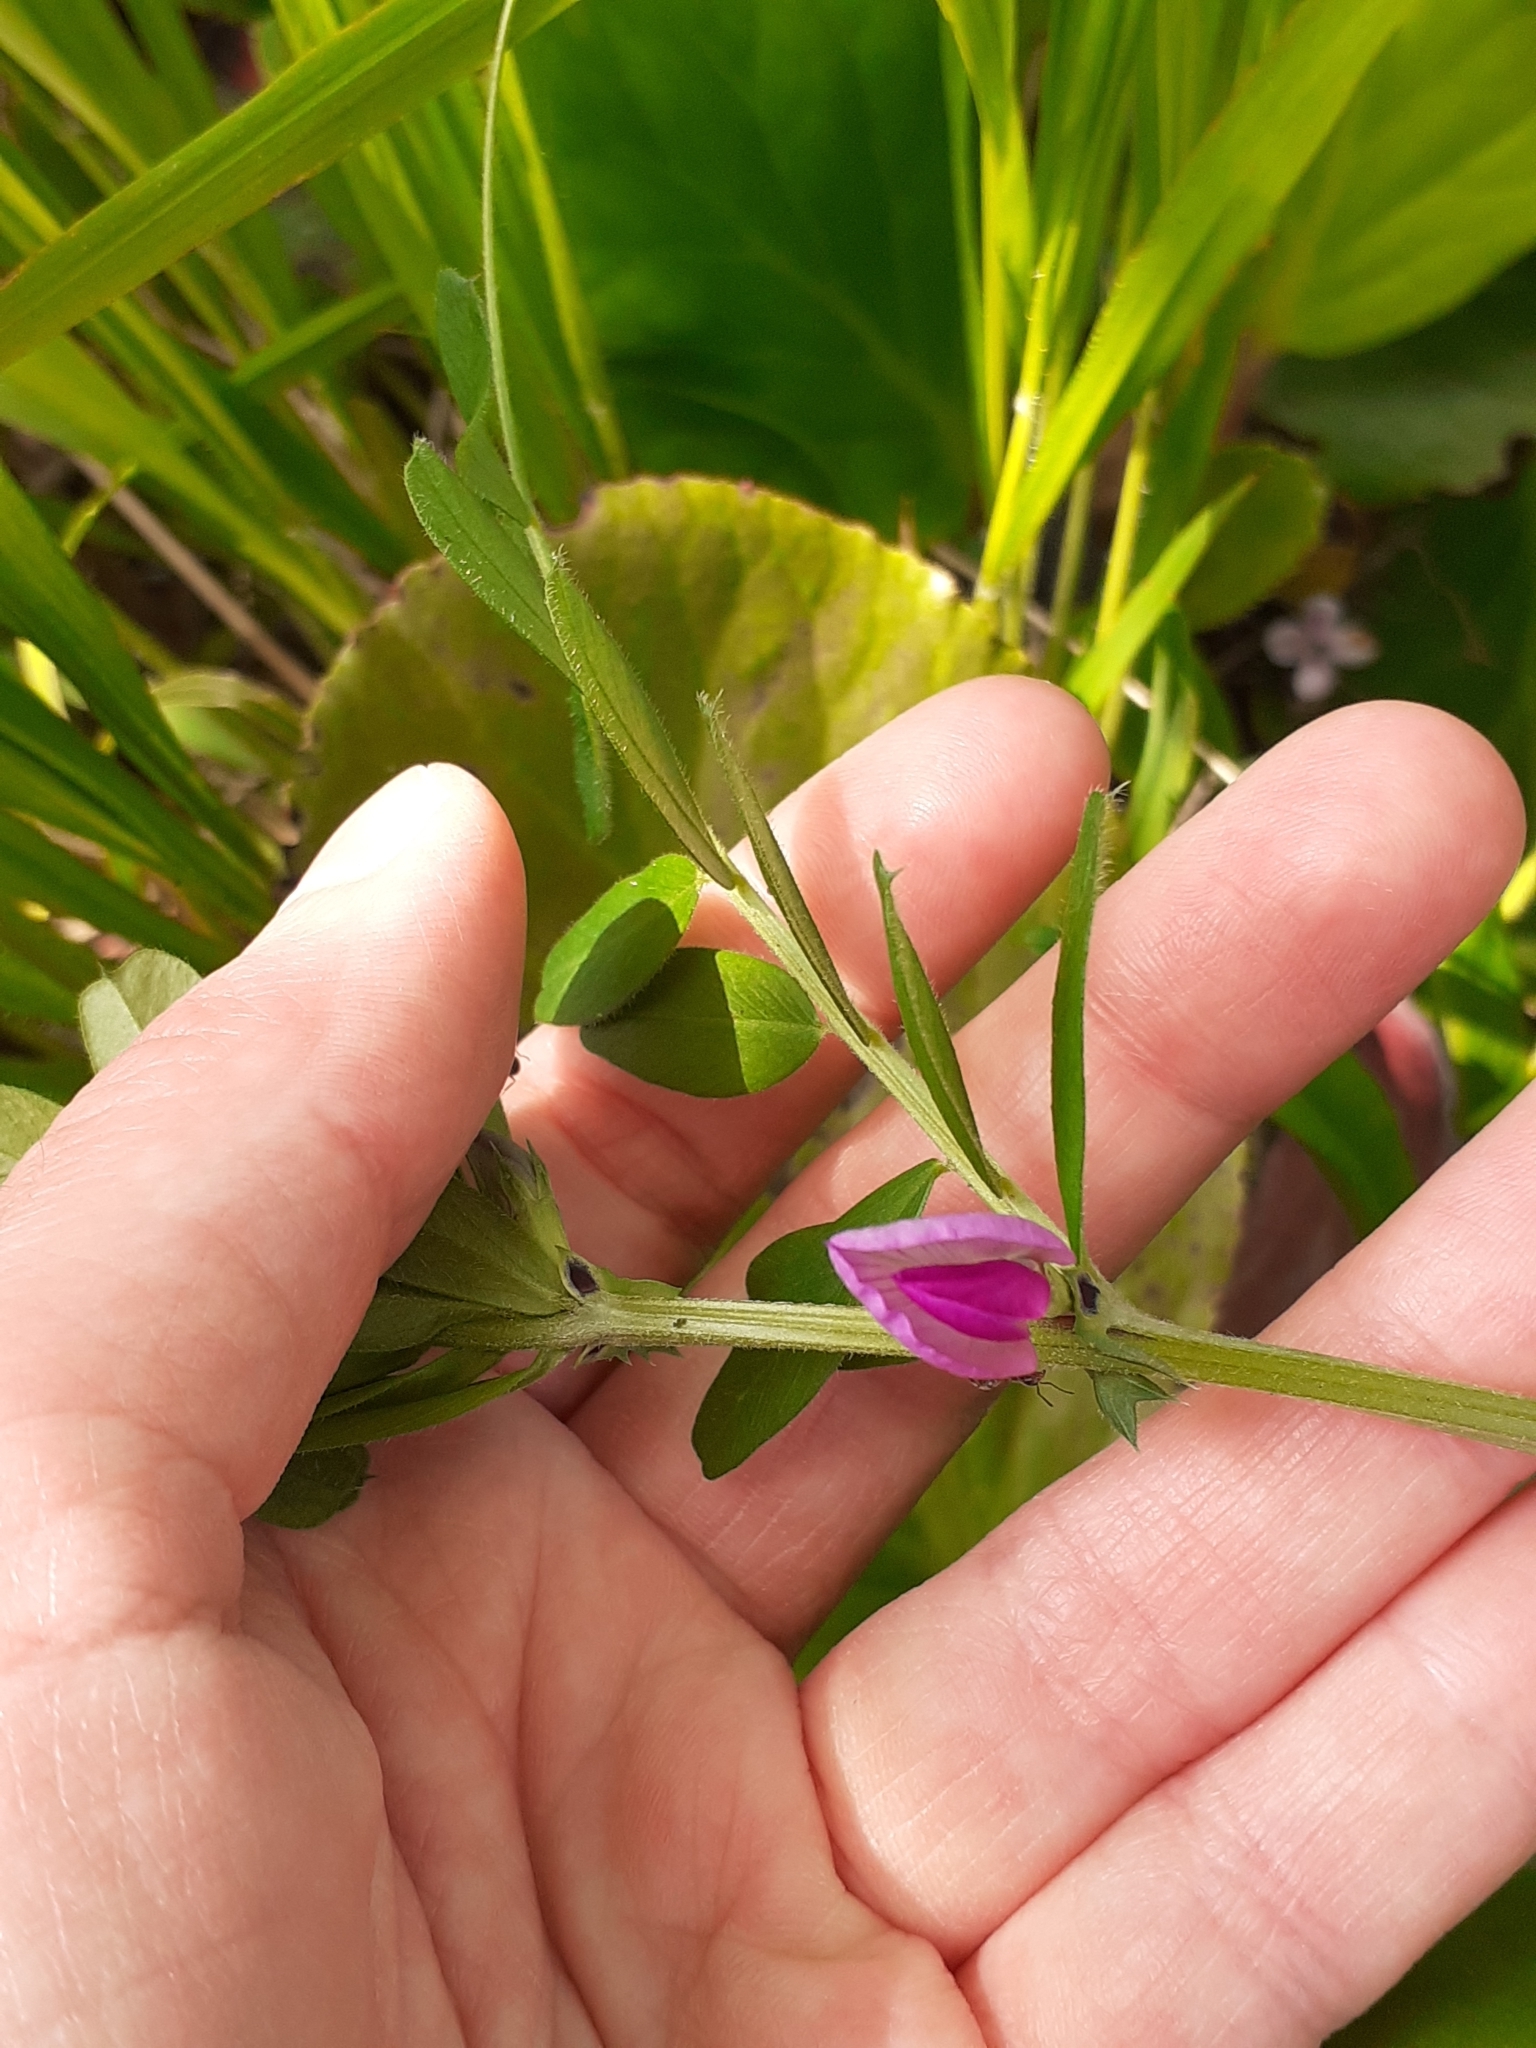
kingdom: Plantae
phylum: Tracheophyta
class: Magnoliopsida
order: Fabales
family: Fabaceae
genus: Vicia
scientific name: Vicia sativa
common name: Garden vetch
